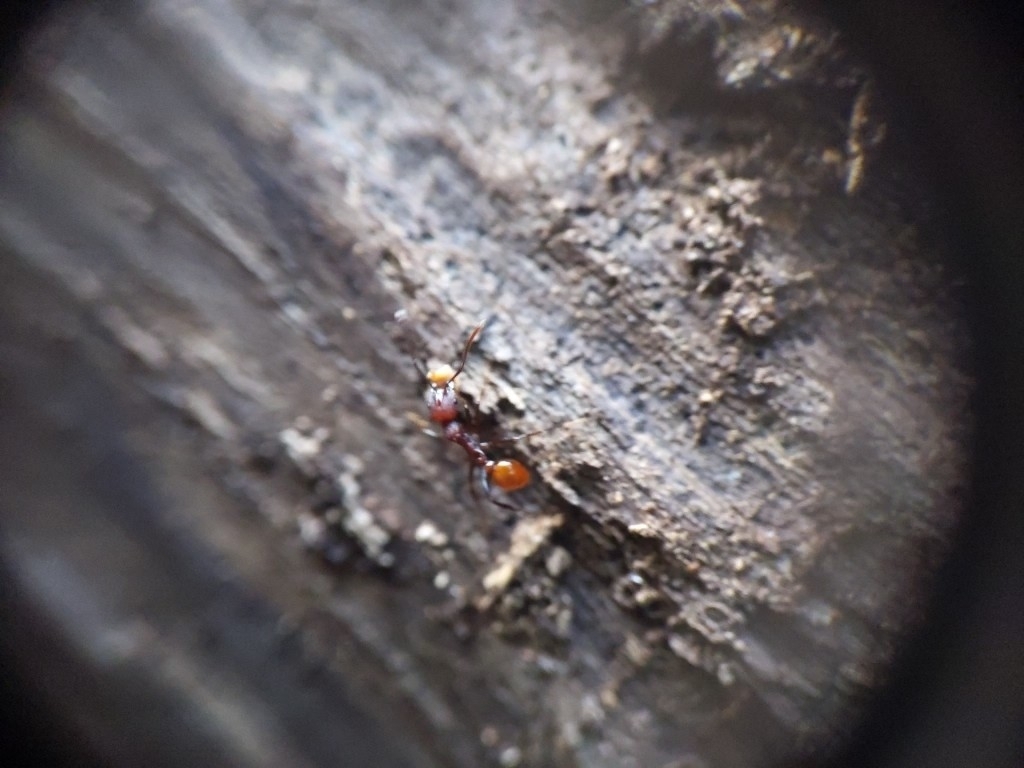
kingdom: Animalia
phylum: Arthropoda
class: Insecta
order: Hymenoptera
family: Formicidae
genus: Aphaenogaster
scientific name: Aphaenogaster tennesseensis
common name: Tennessee thread-waisted ant
